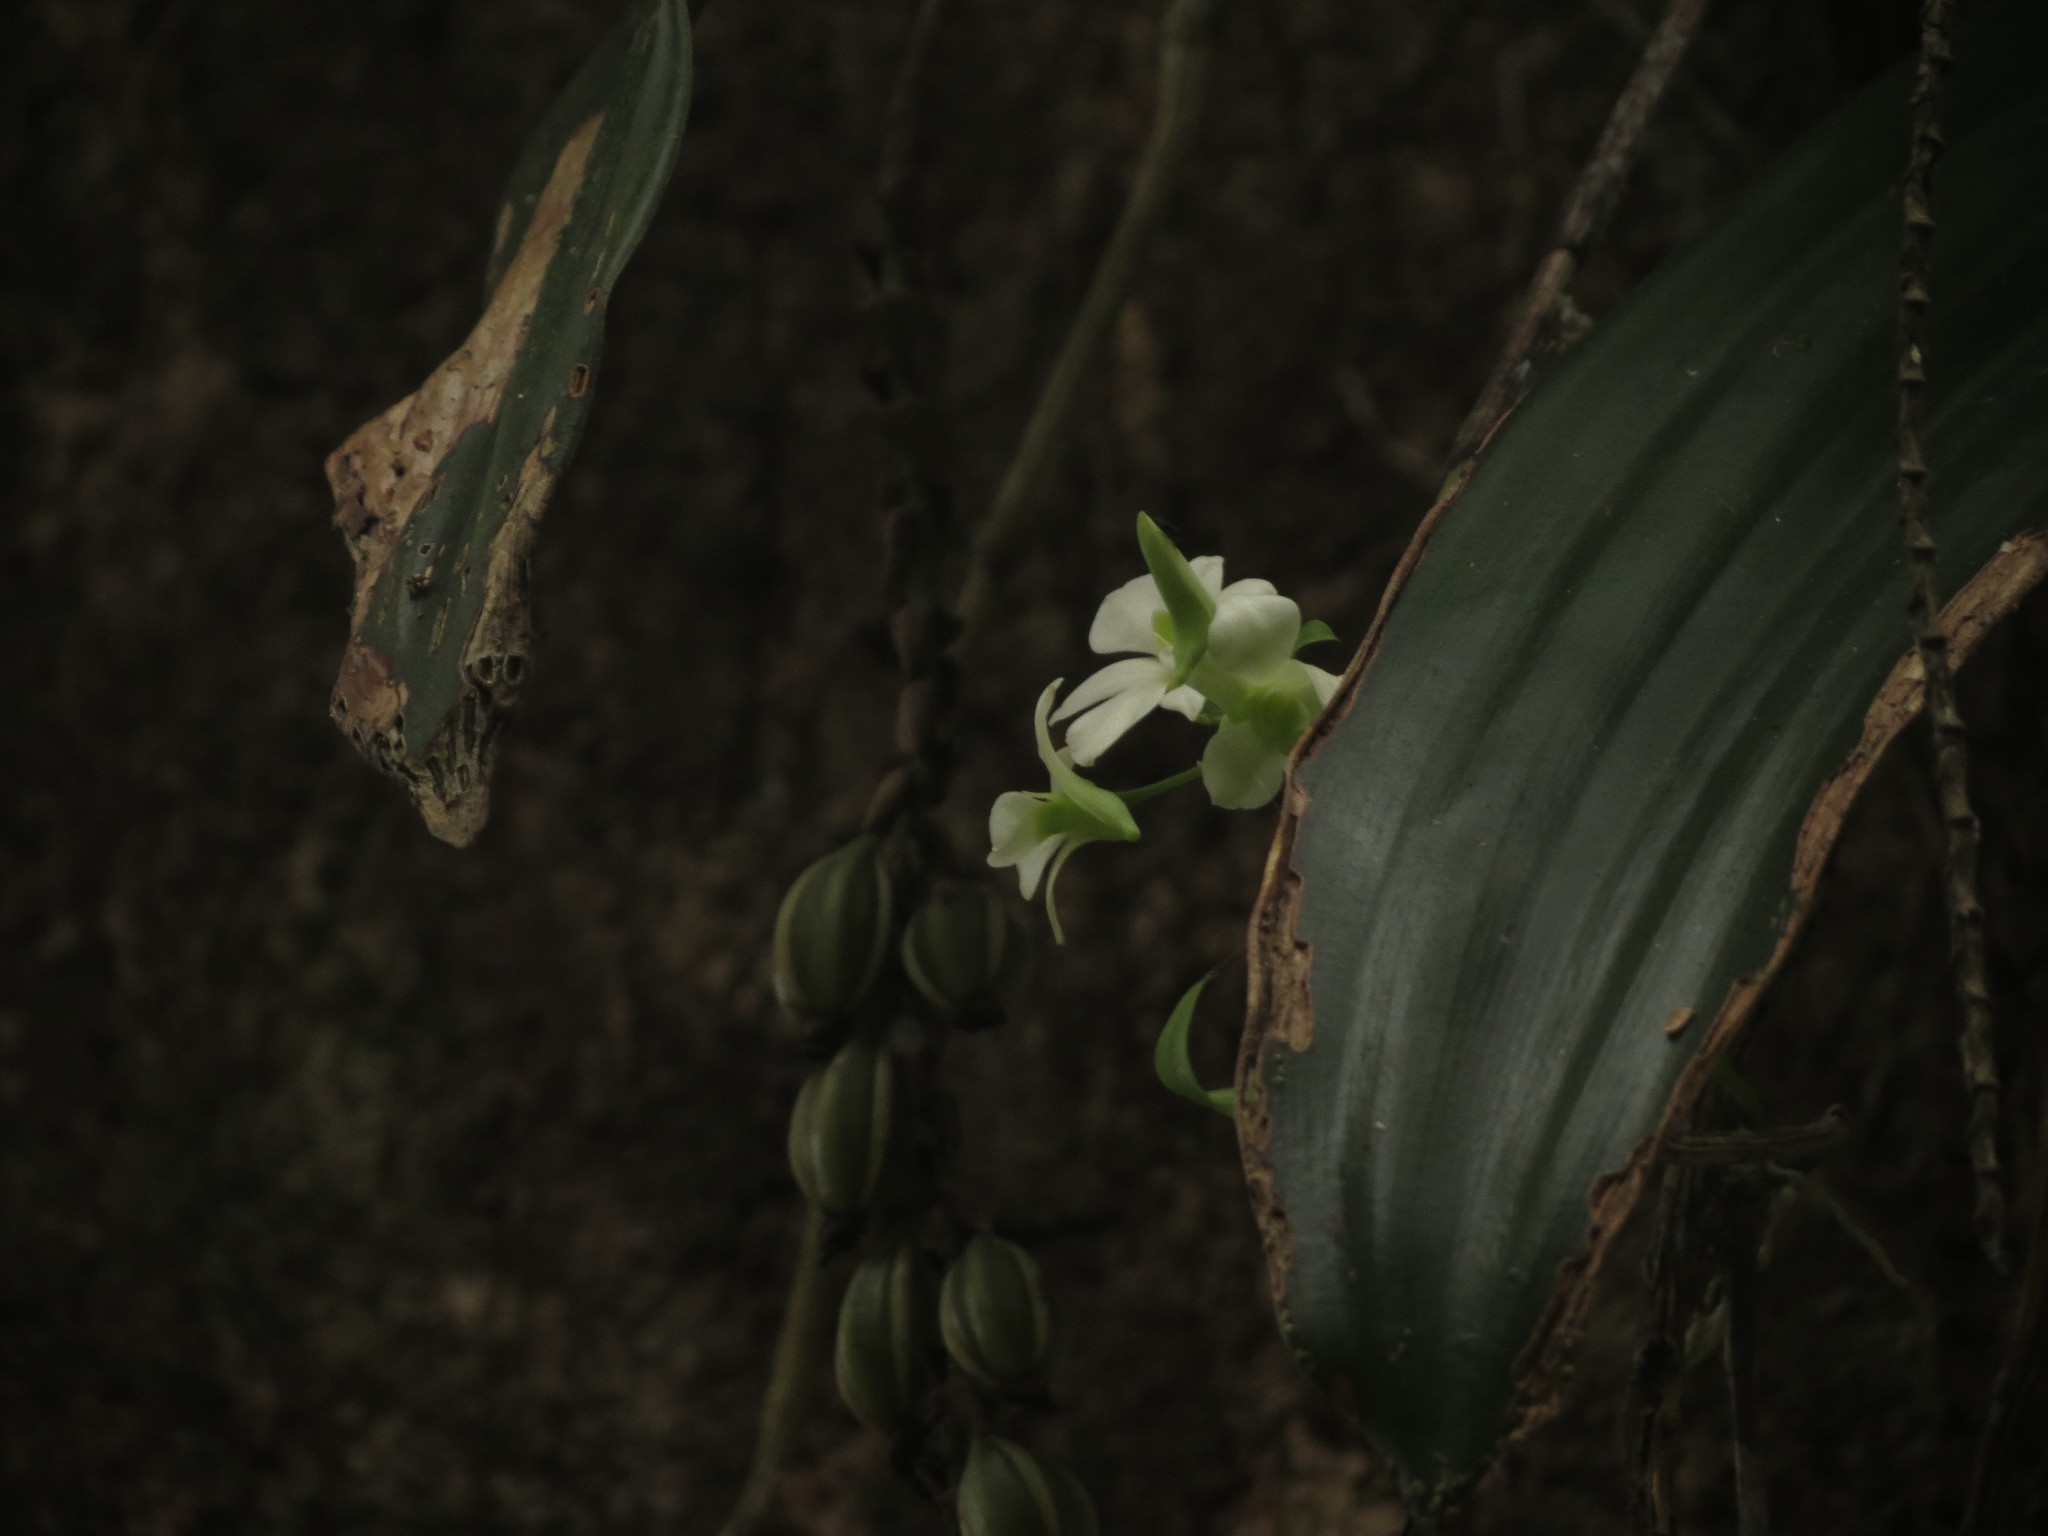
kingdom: Plantae
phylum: Tracheophyta
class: Liliopsida
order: Asparagales
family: Orchidaceae
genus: Dendrobium
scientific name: Dendrobium ovatum
